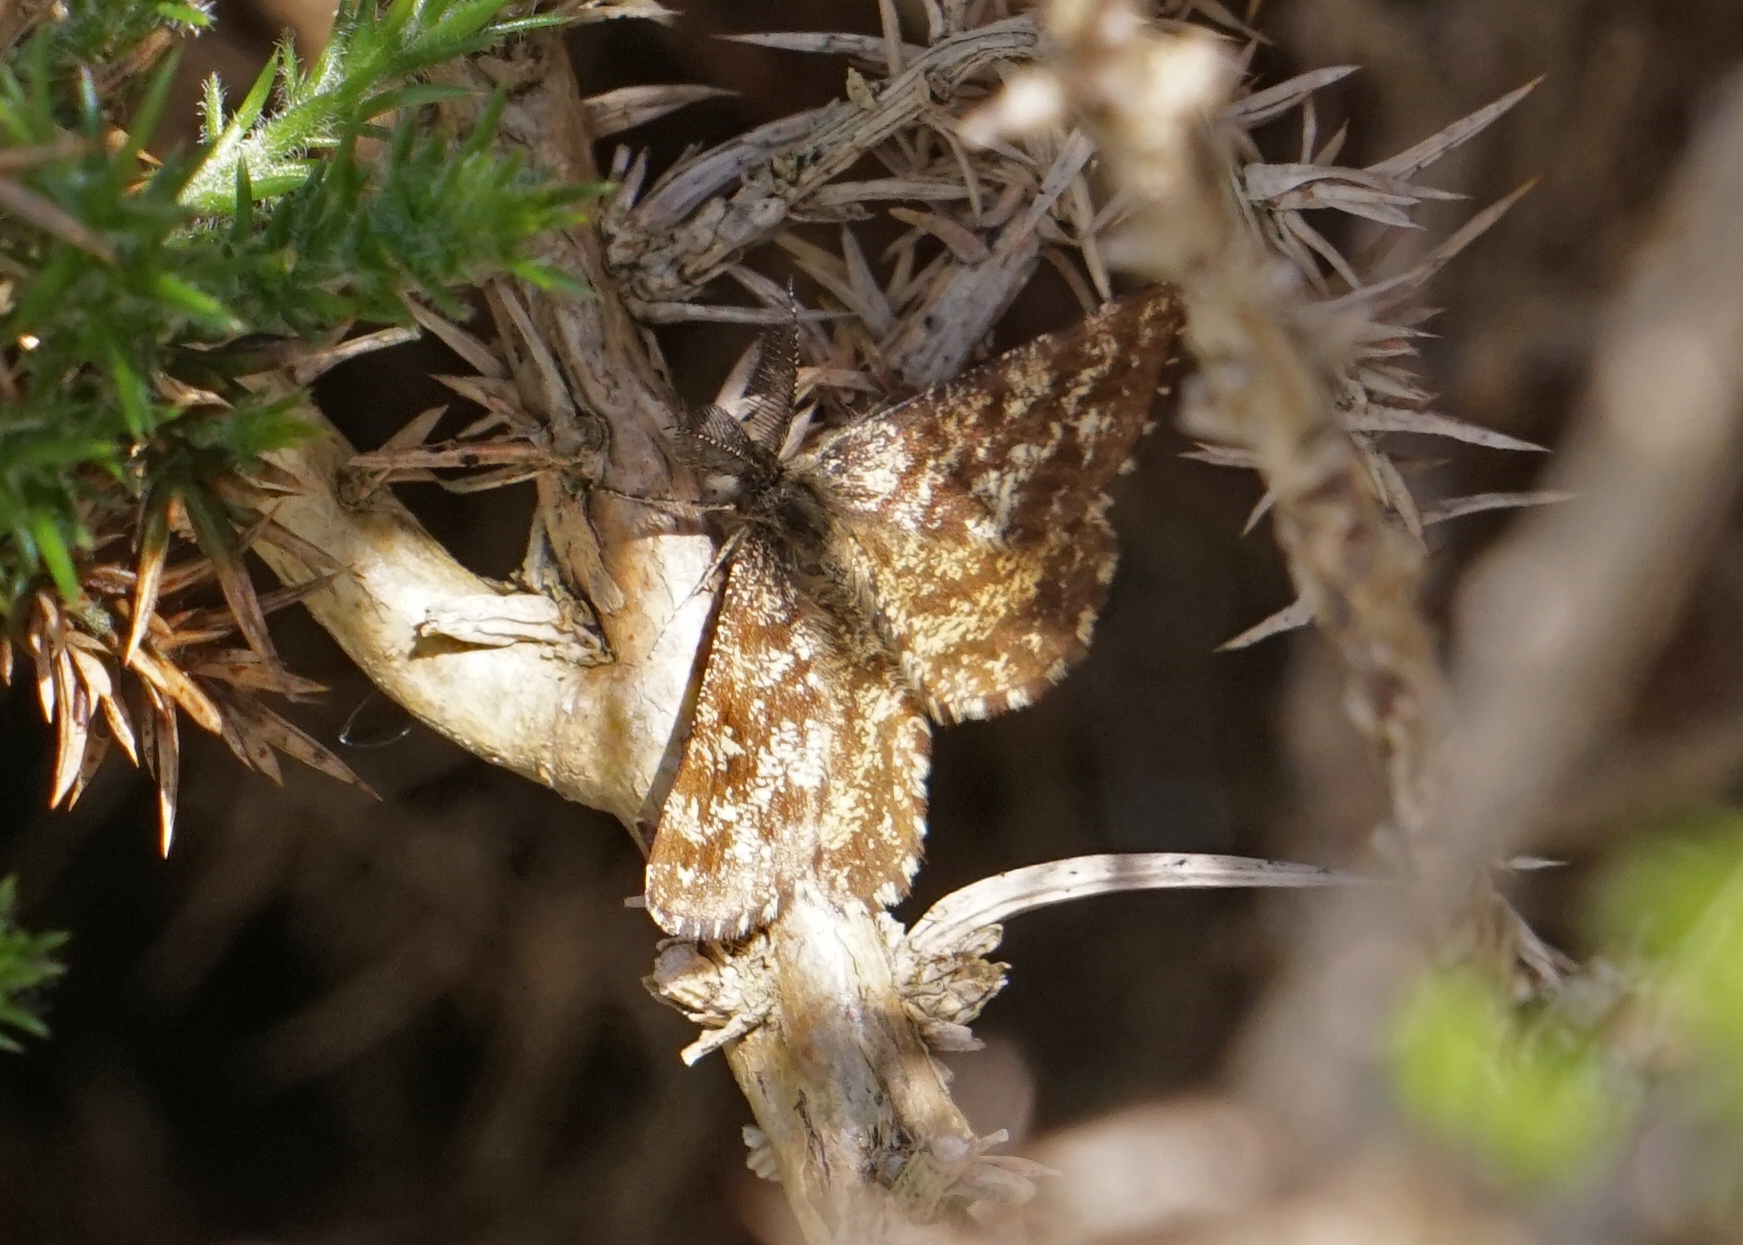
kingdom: Animalia
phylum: Arthropoda
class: Insecta
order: Lepidoptera
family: Geometridae
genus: Ematurga
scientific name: Ematurga atomaria
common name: Common heath
